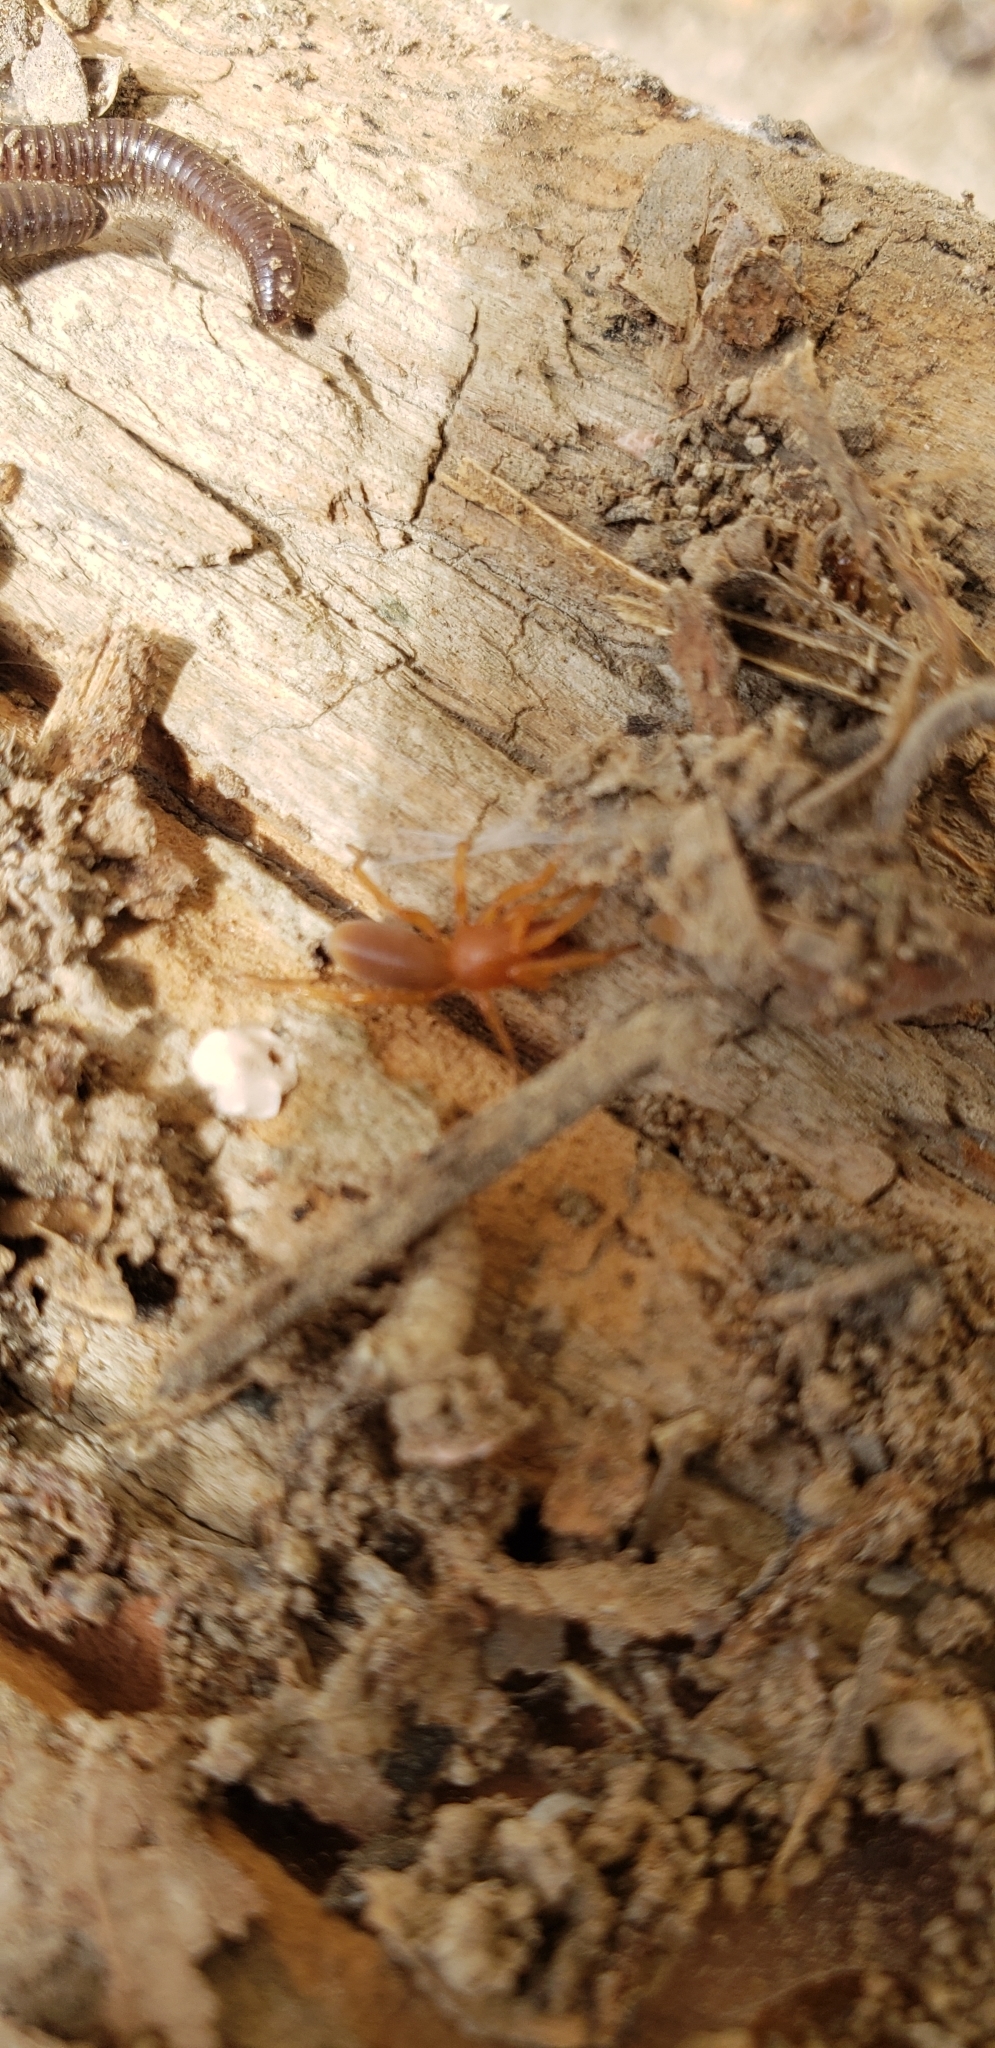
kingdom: Animalia
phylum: Arthropoda
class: Arachnida
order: Araneae
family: Dysderidae
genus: Dysdera
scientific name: Dysdera crocata
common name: Woodlouse spider
